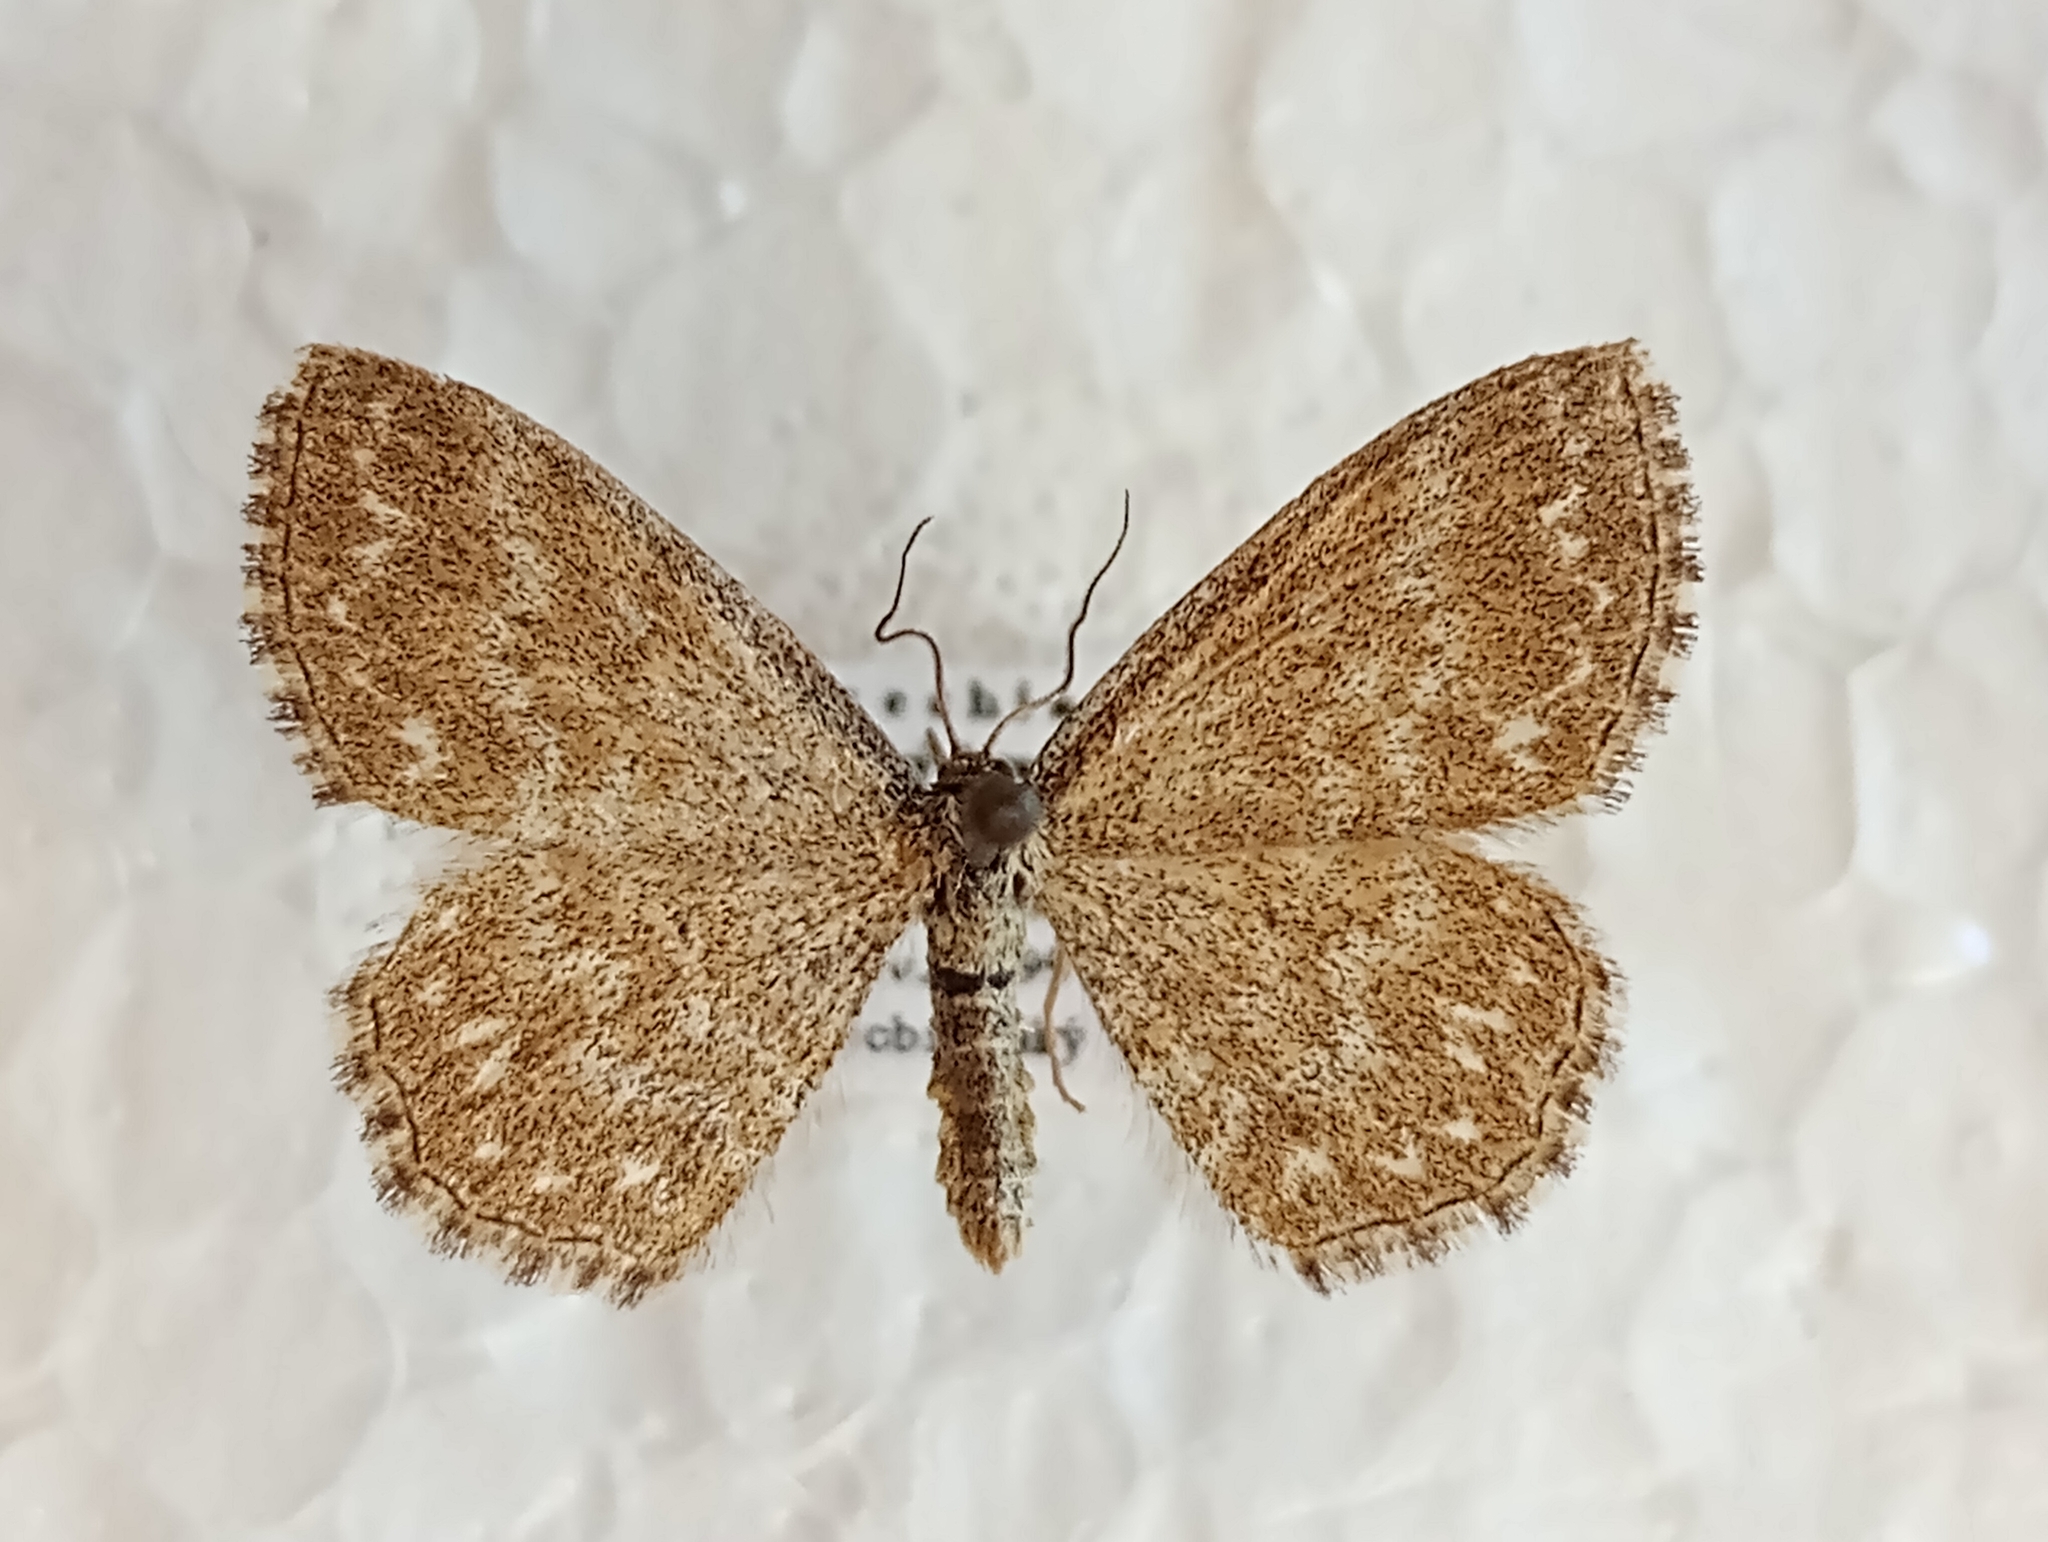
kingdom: Animalia
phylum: Arthropoda
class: Insecta
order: Lepidoptera
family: Geometridae
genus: Scopula
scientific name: Scopula immorata
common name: Lewes wave
